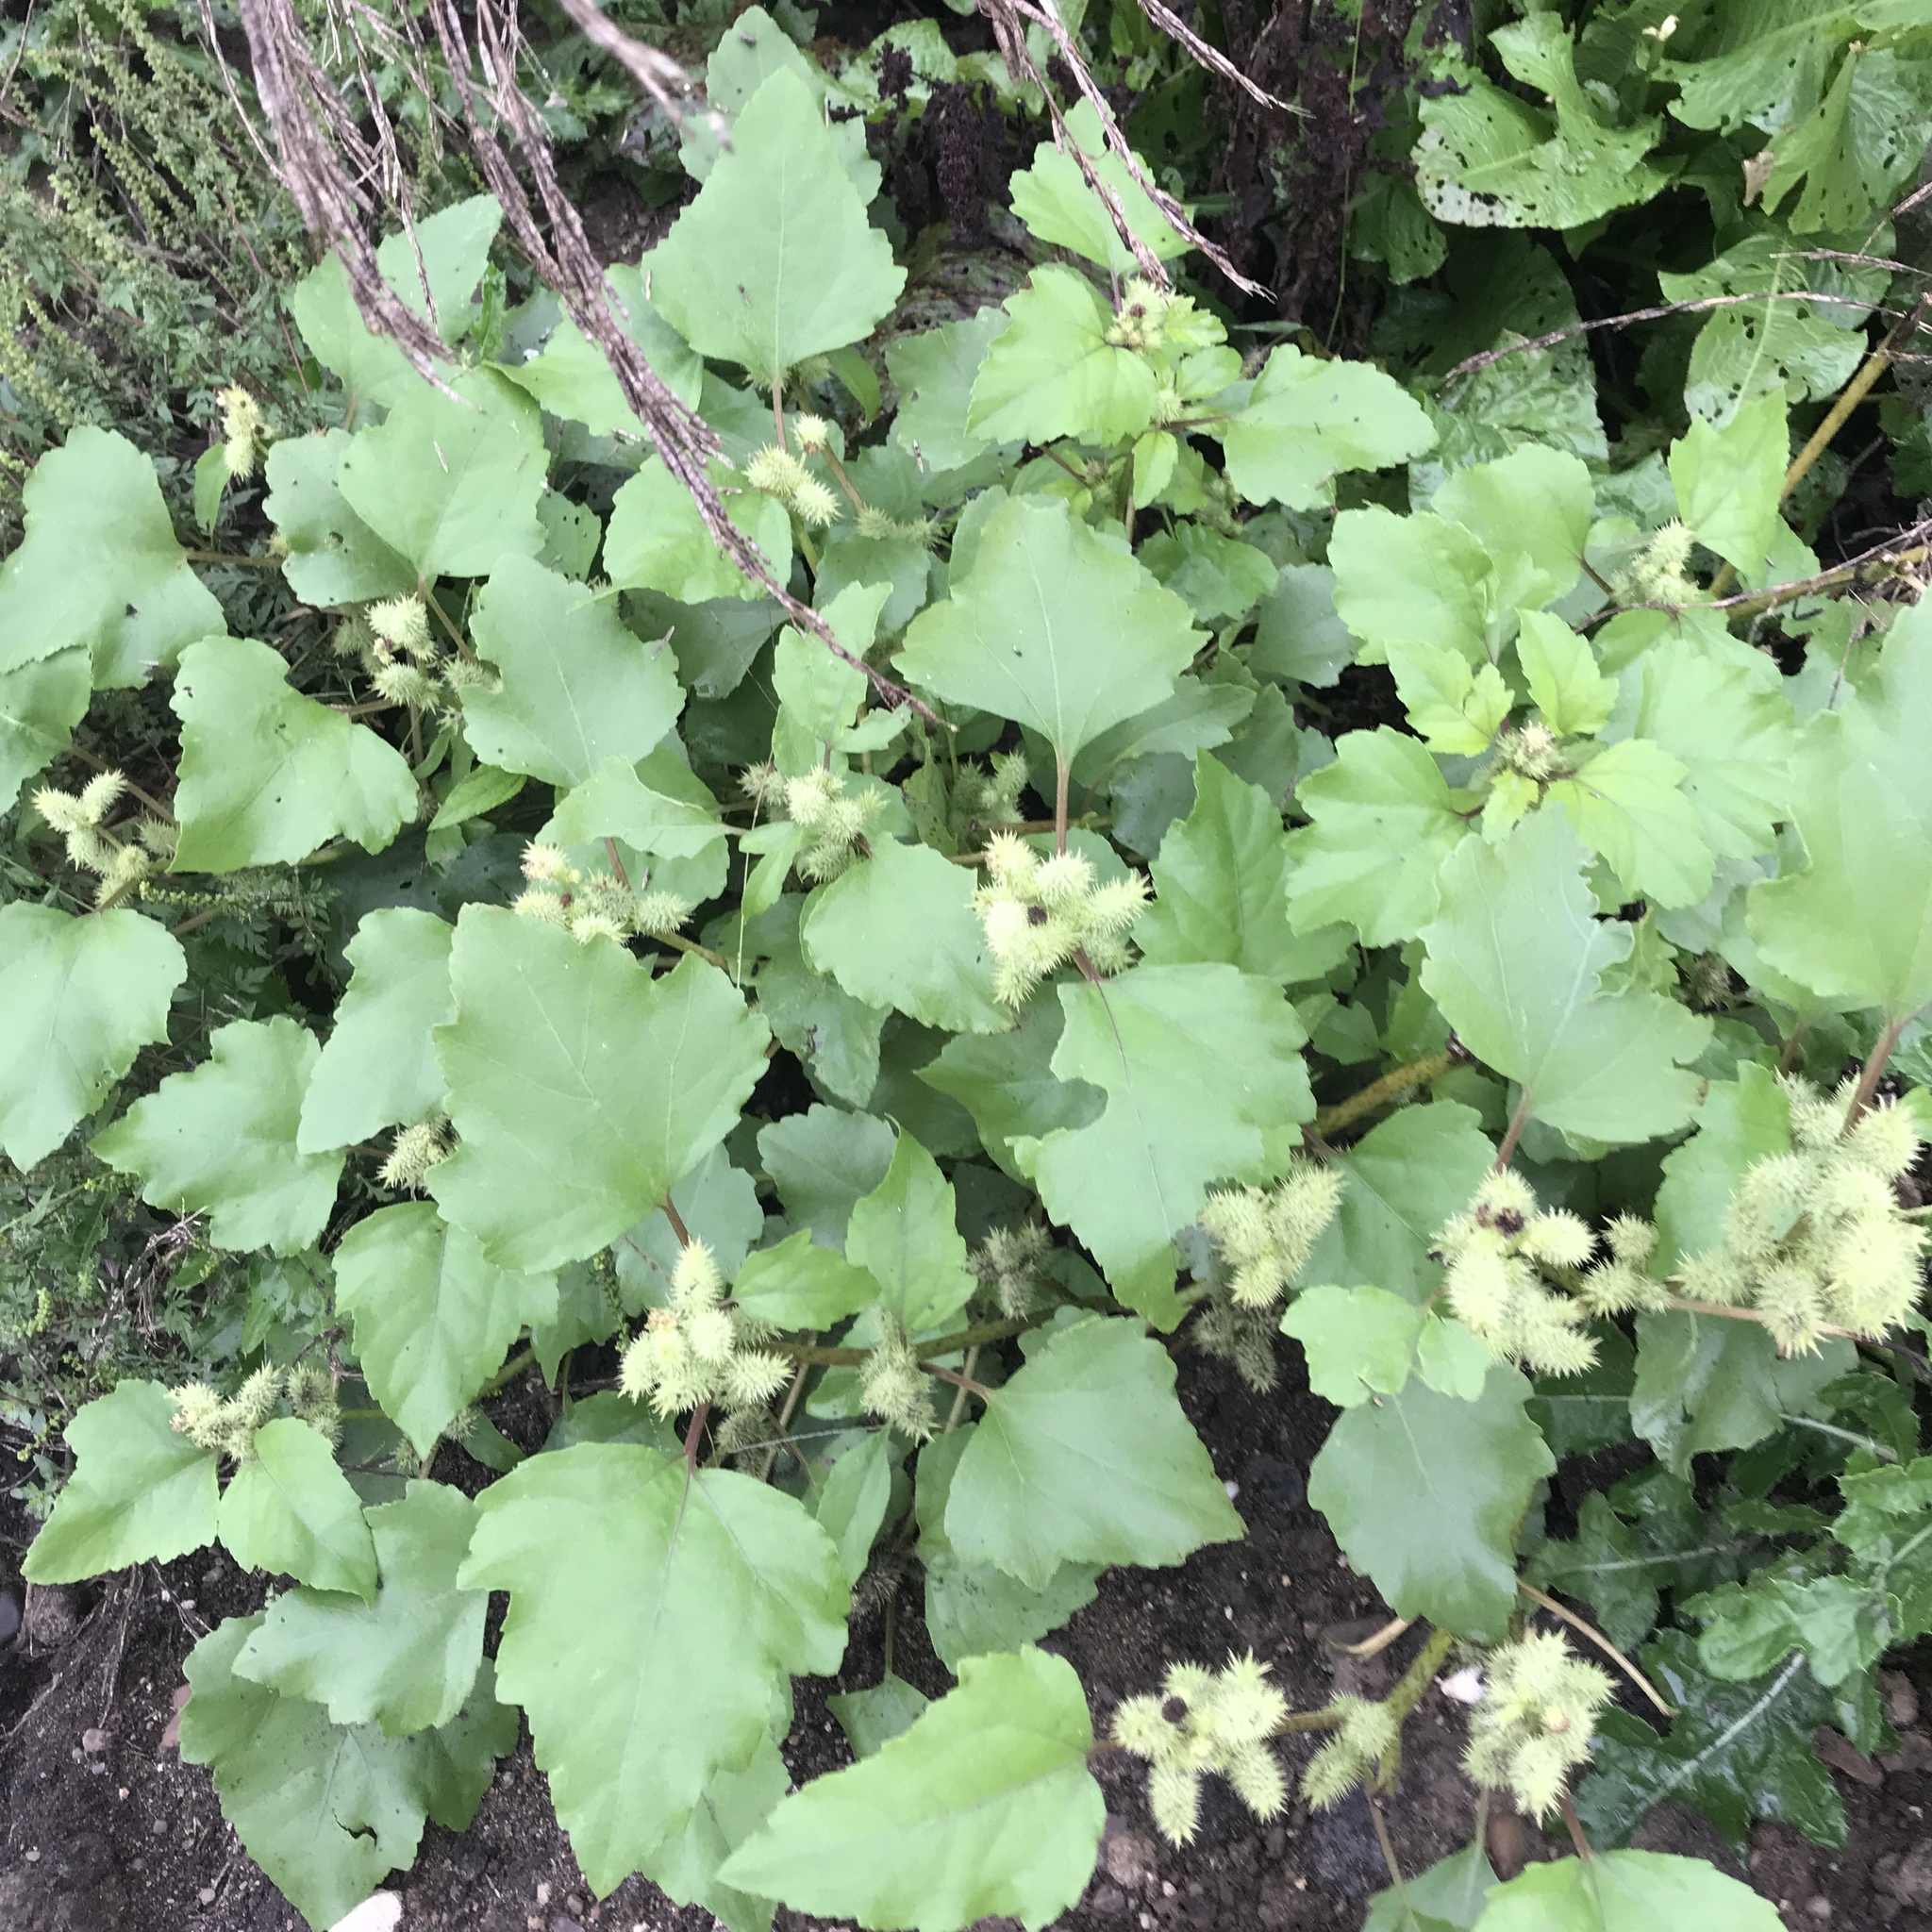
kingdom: Plantae
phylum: Tracheophyta
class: Magnoliopsida
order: Asterales
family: Asteraceae
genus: Xanthium
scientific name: Xanthium strumarium
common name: Rough cocklebur
